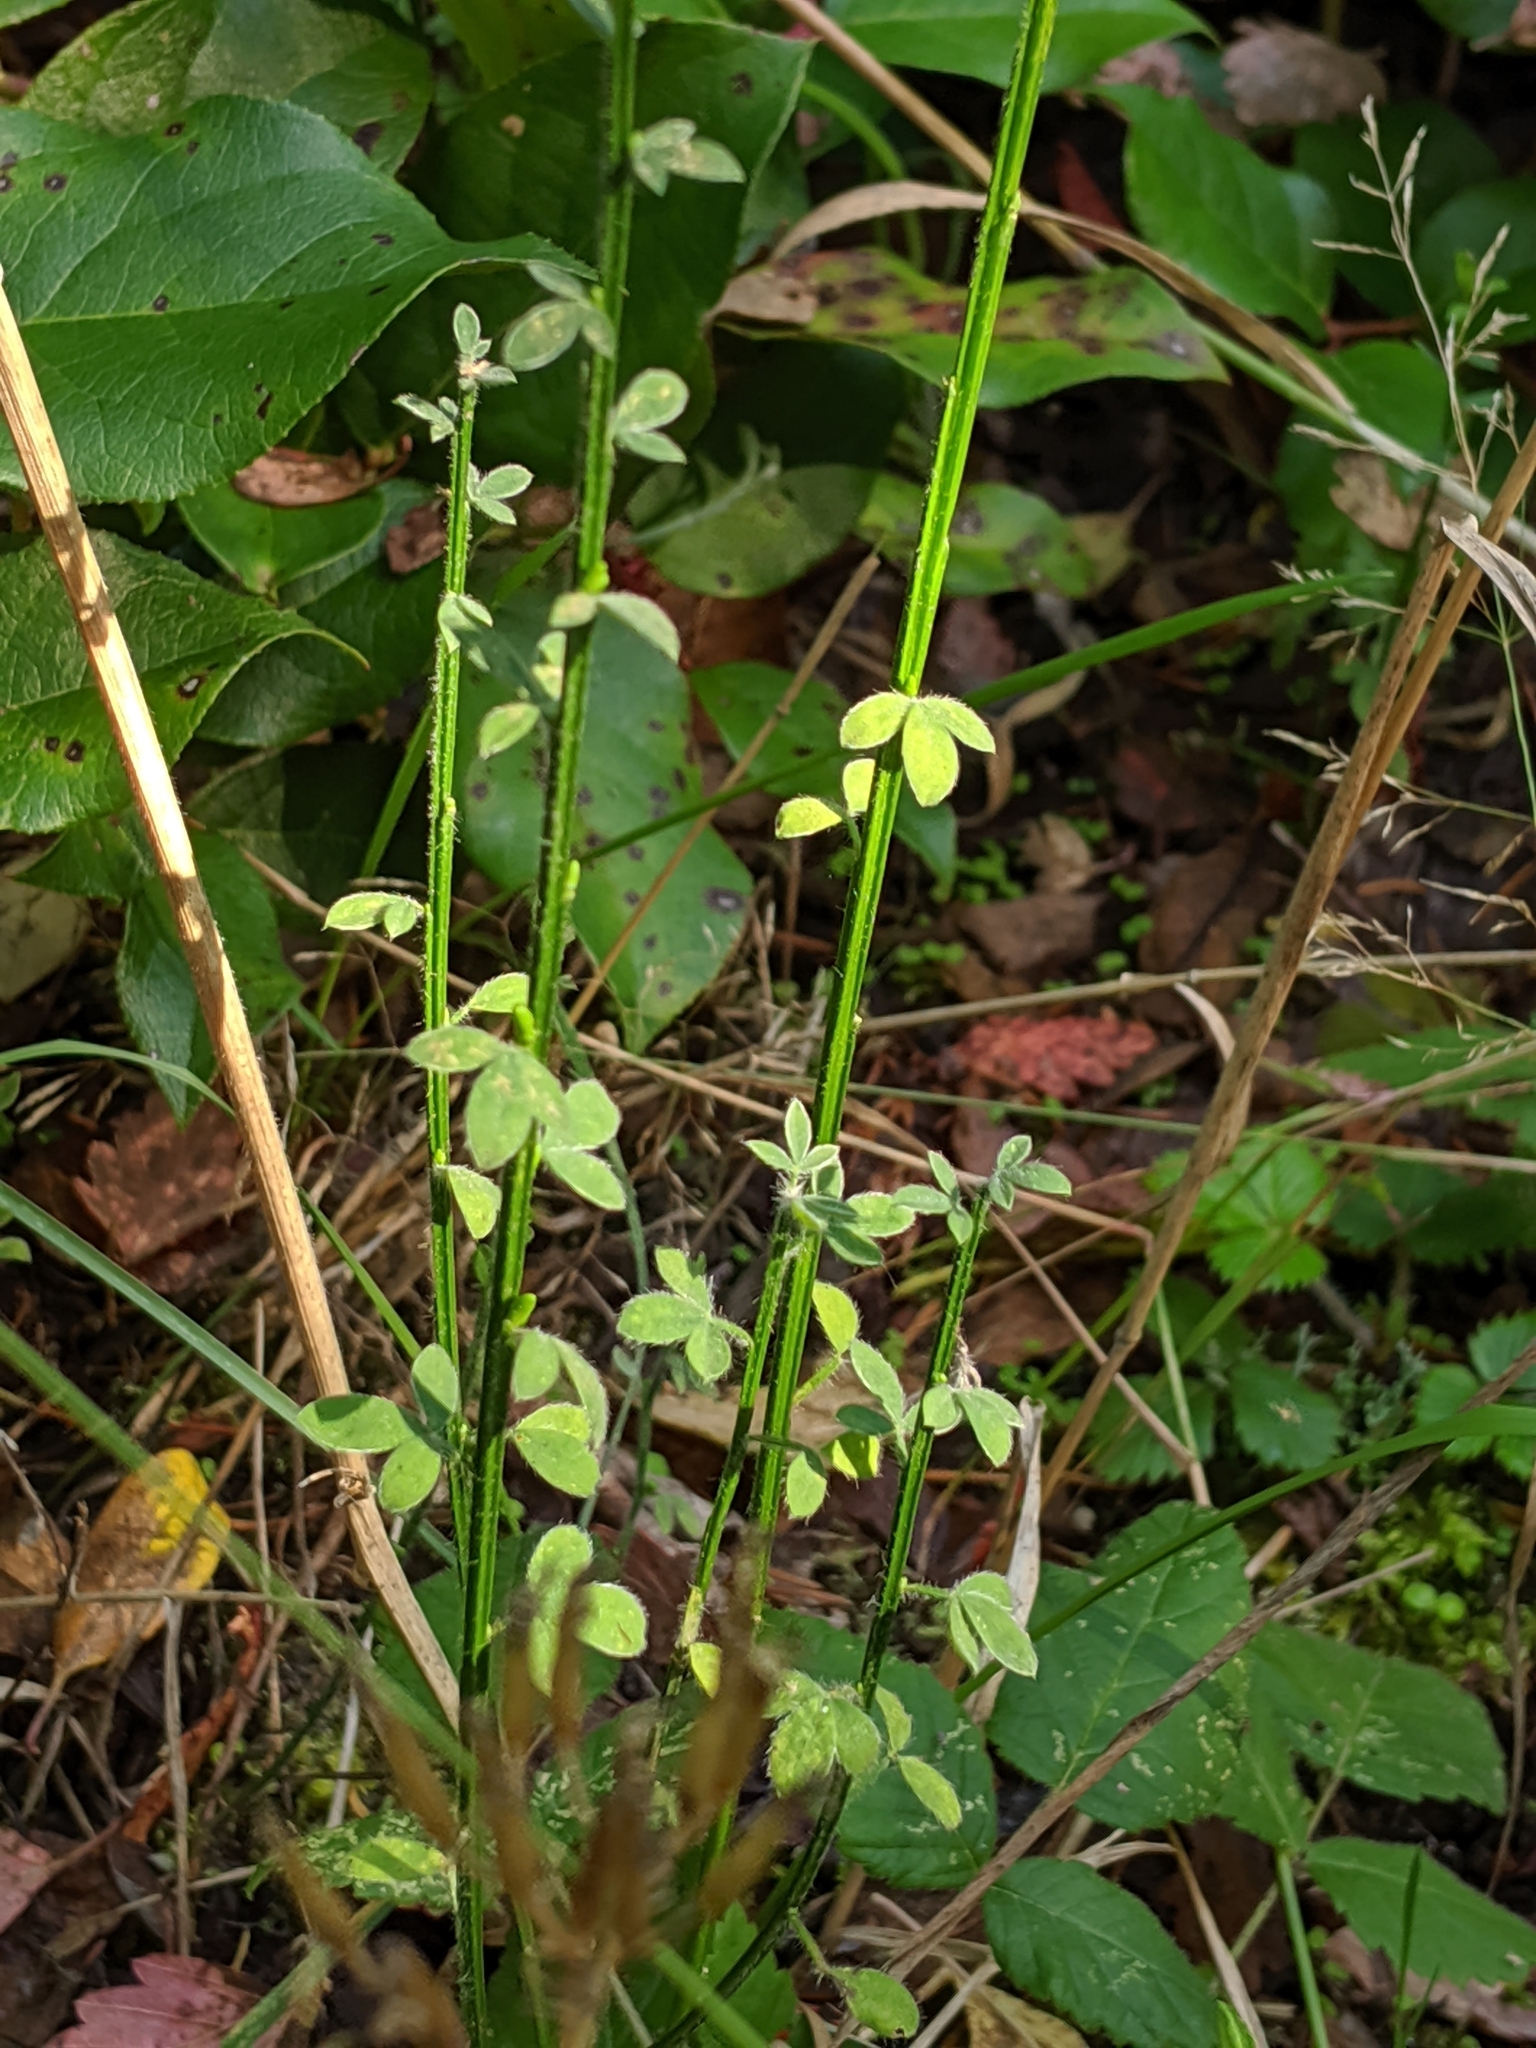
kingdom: Plantae
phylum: Tracheophyta
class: Magnoliopsida
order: Fabales
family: Fabaceae
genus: Cytisus
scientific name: Cytisus scoparius
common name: Scotch broom
